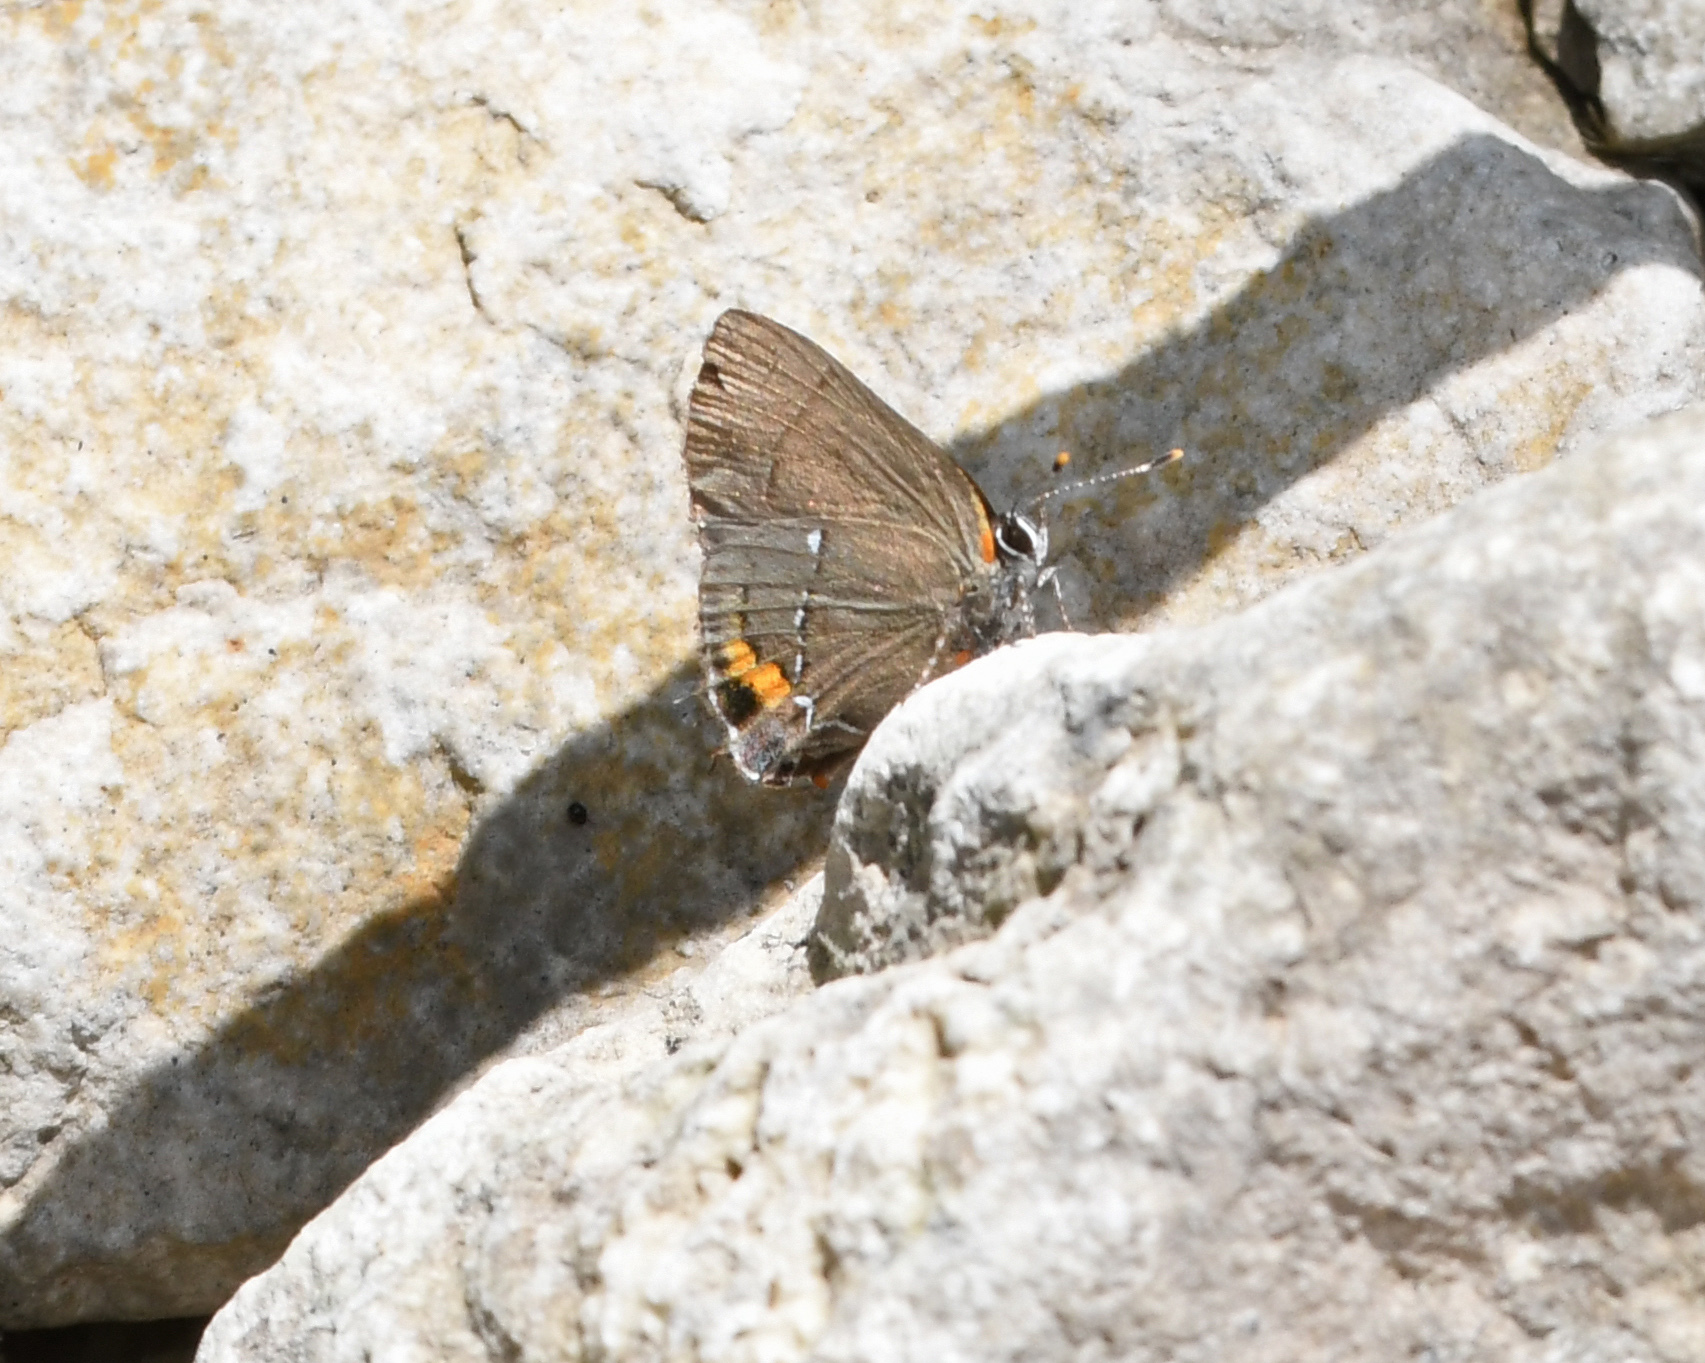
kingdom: Animalia
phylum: Arthropoda
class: Insecta
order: Lepidoptera
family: Lycaenidae
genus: Thecla
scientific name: Thecla angelia
